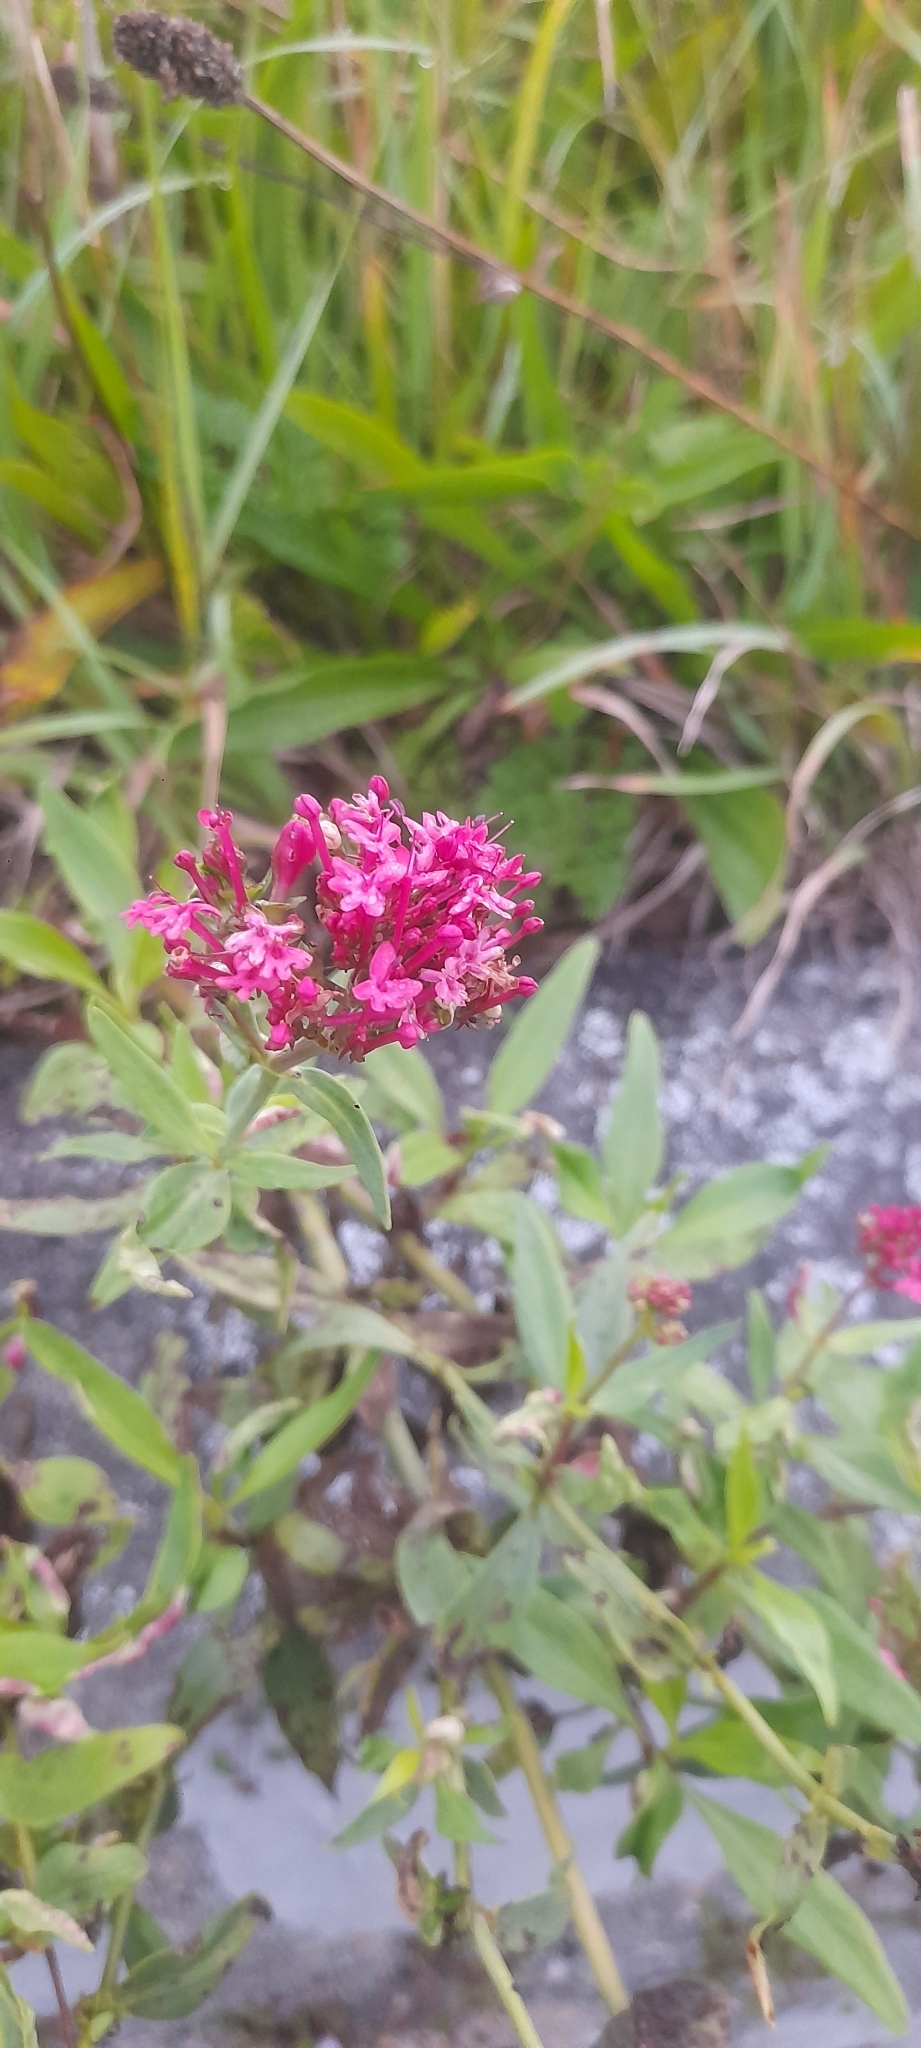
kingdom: Plantae
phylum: Tracheophyta
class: Magnoliopsida
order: Dipsacales
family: Caprifoliaceae
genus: Centranthus
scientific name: Centranthus ruber
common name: Red valerian
